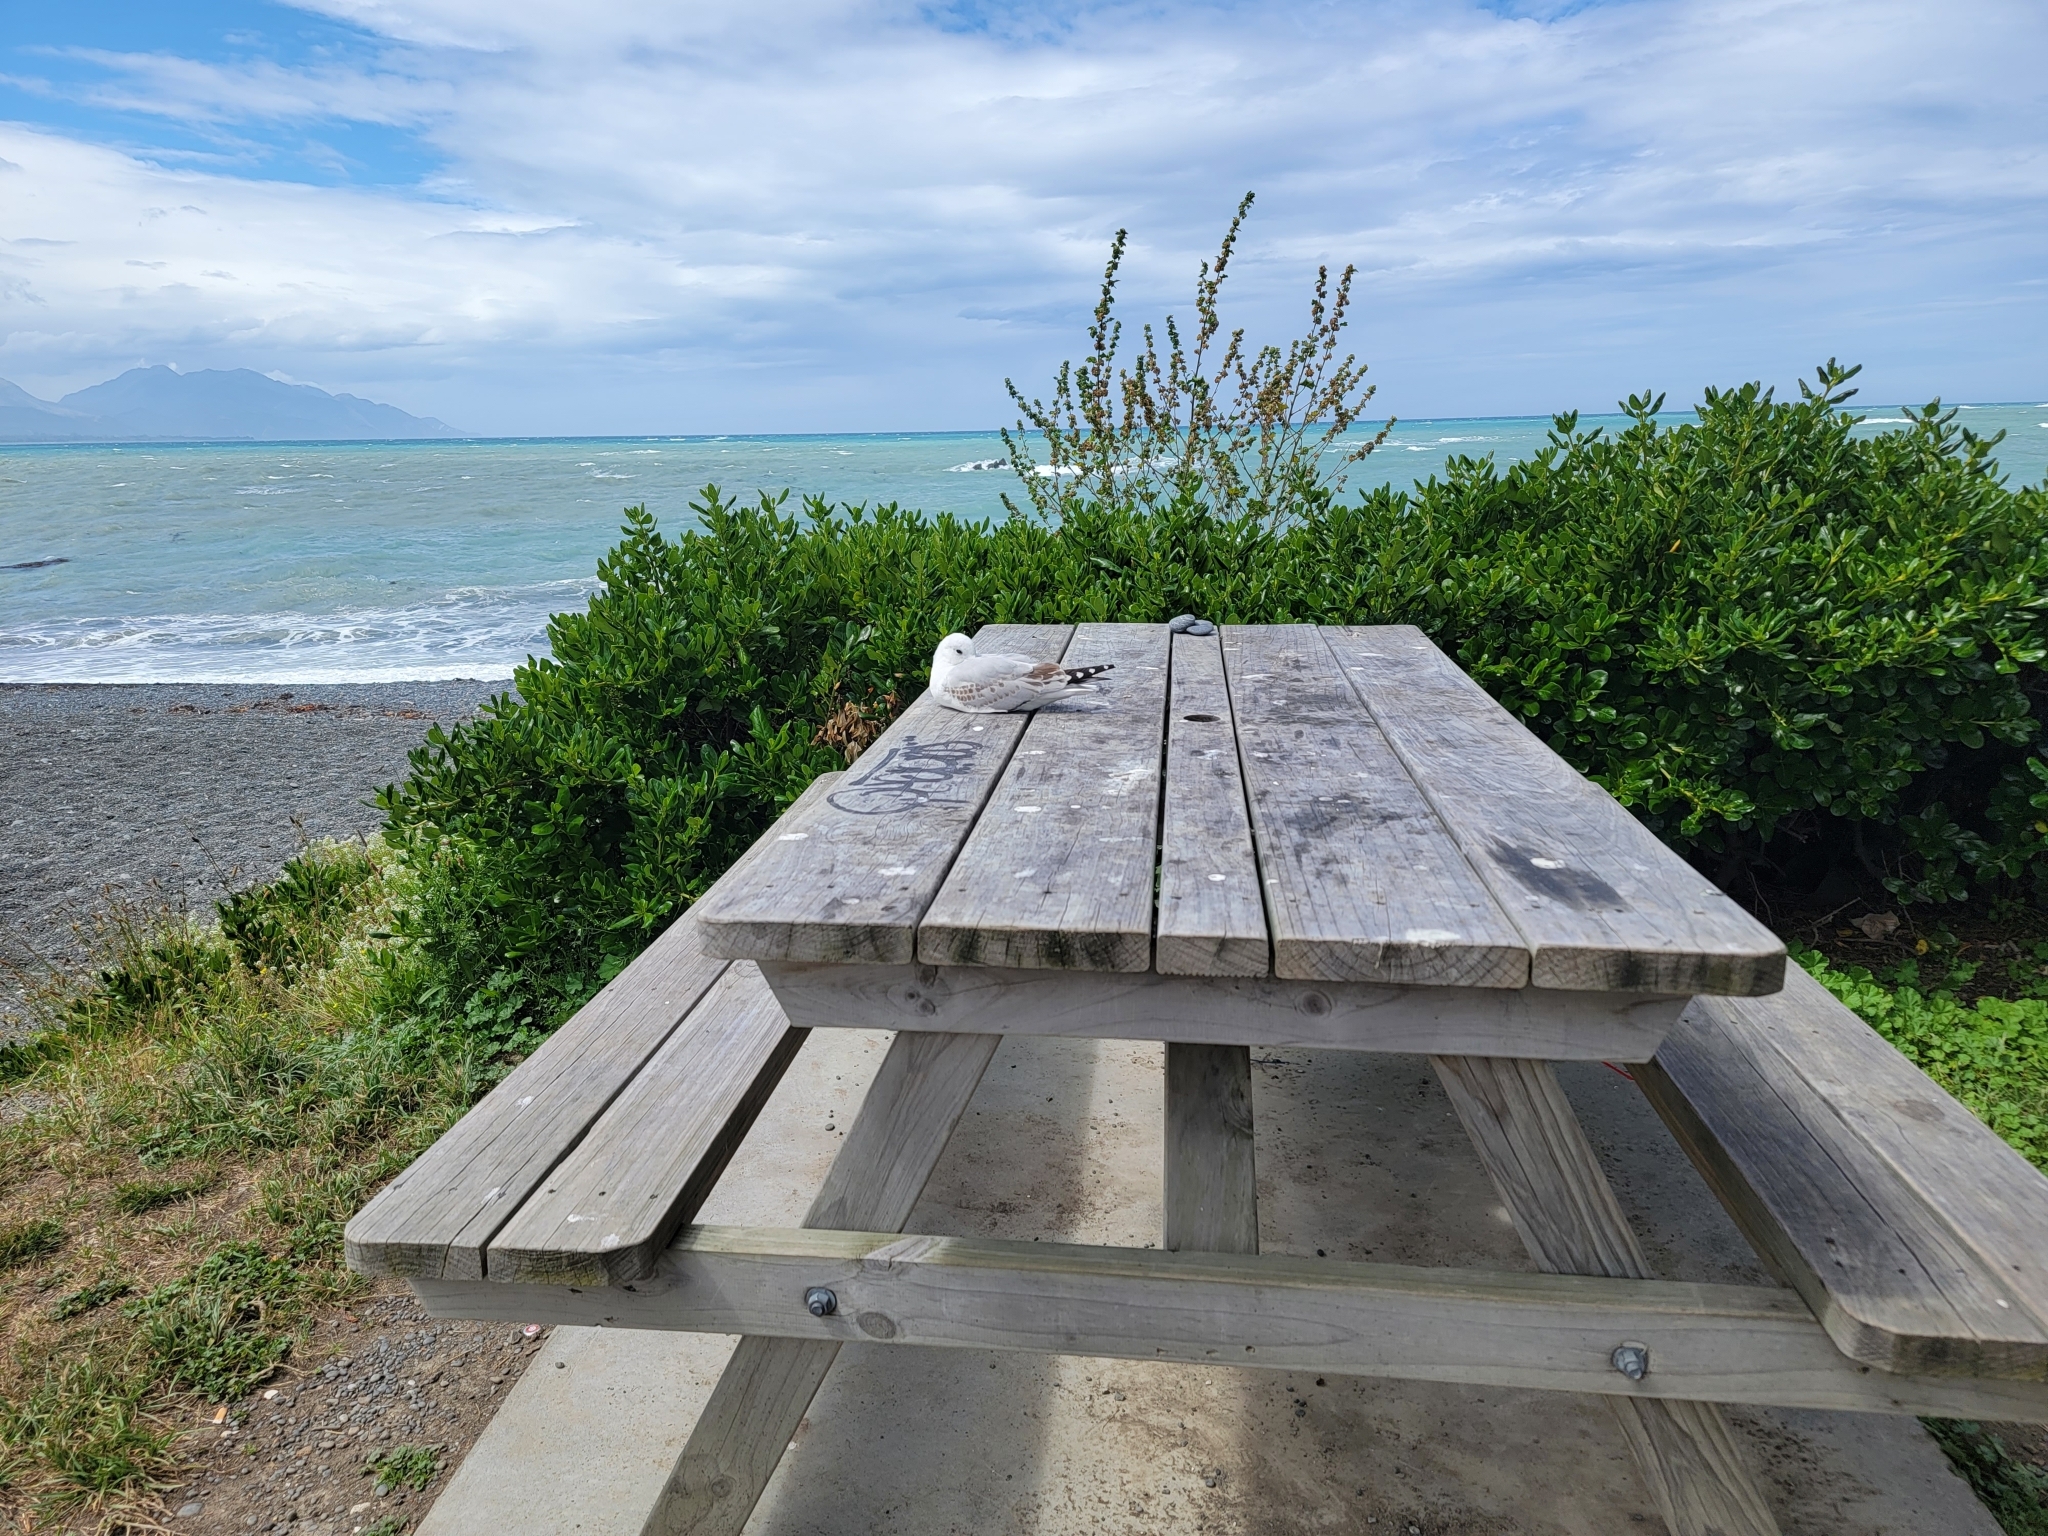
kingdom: Animalia
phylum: Chordata
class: Aves
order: Charadriiformes
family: Laridae
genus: Chroicocephalus
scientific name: Chroicocephalus novaehollandiae
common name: Silver gull
